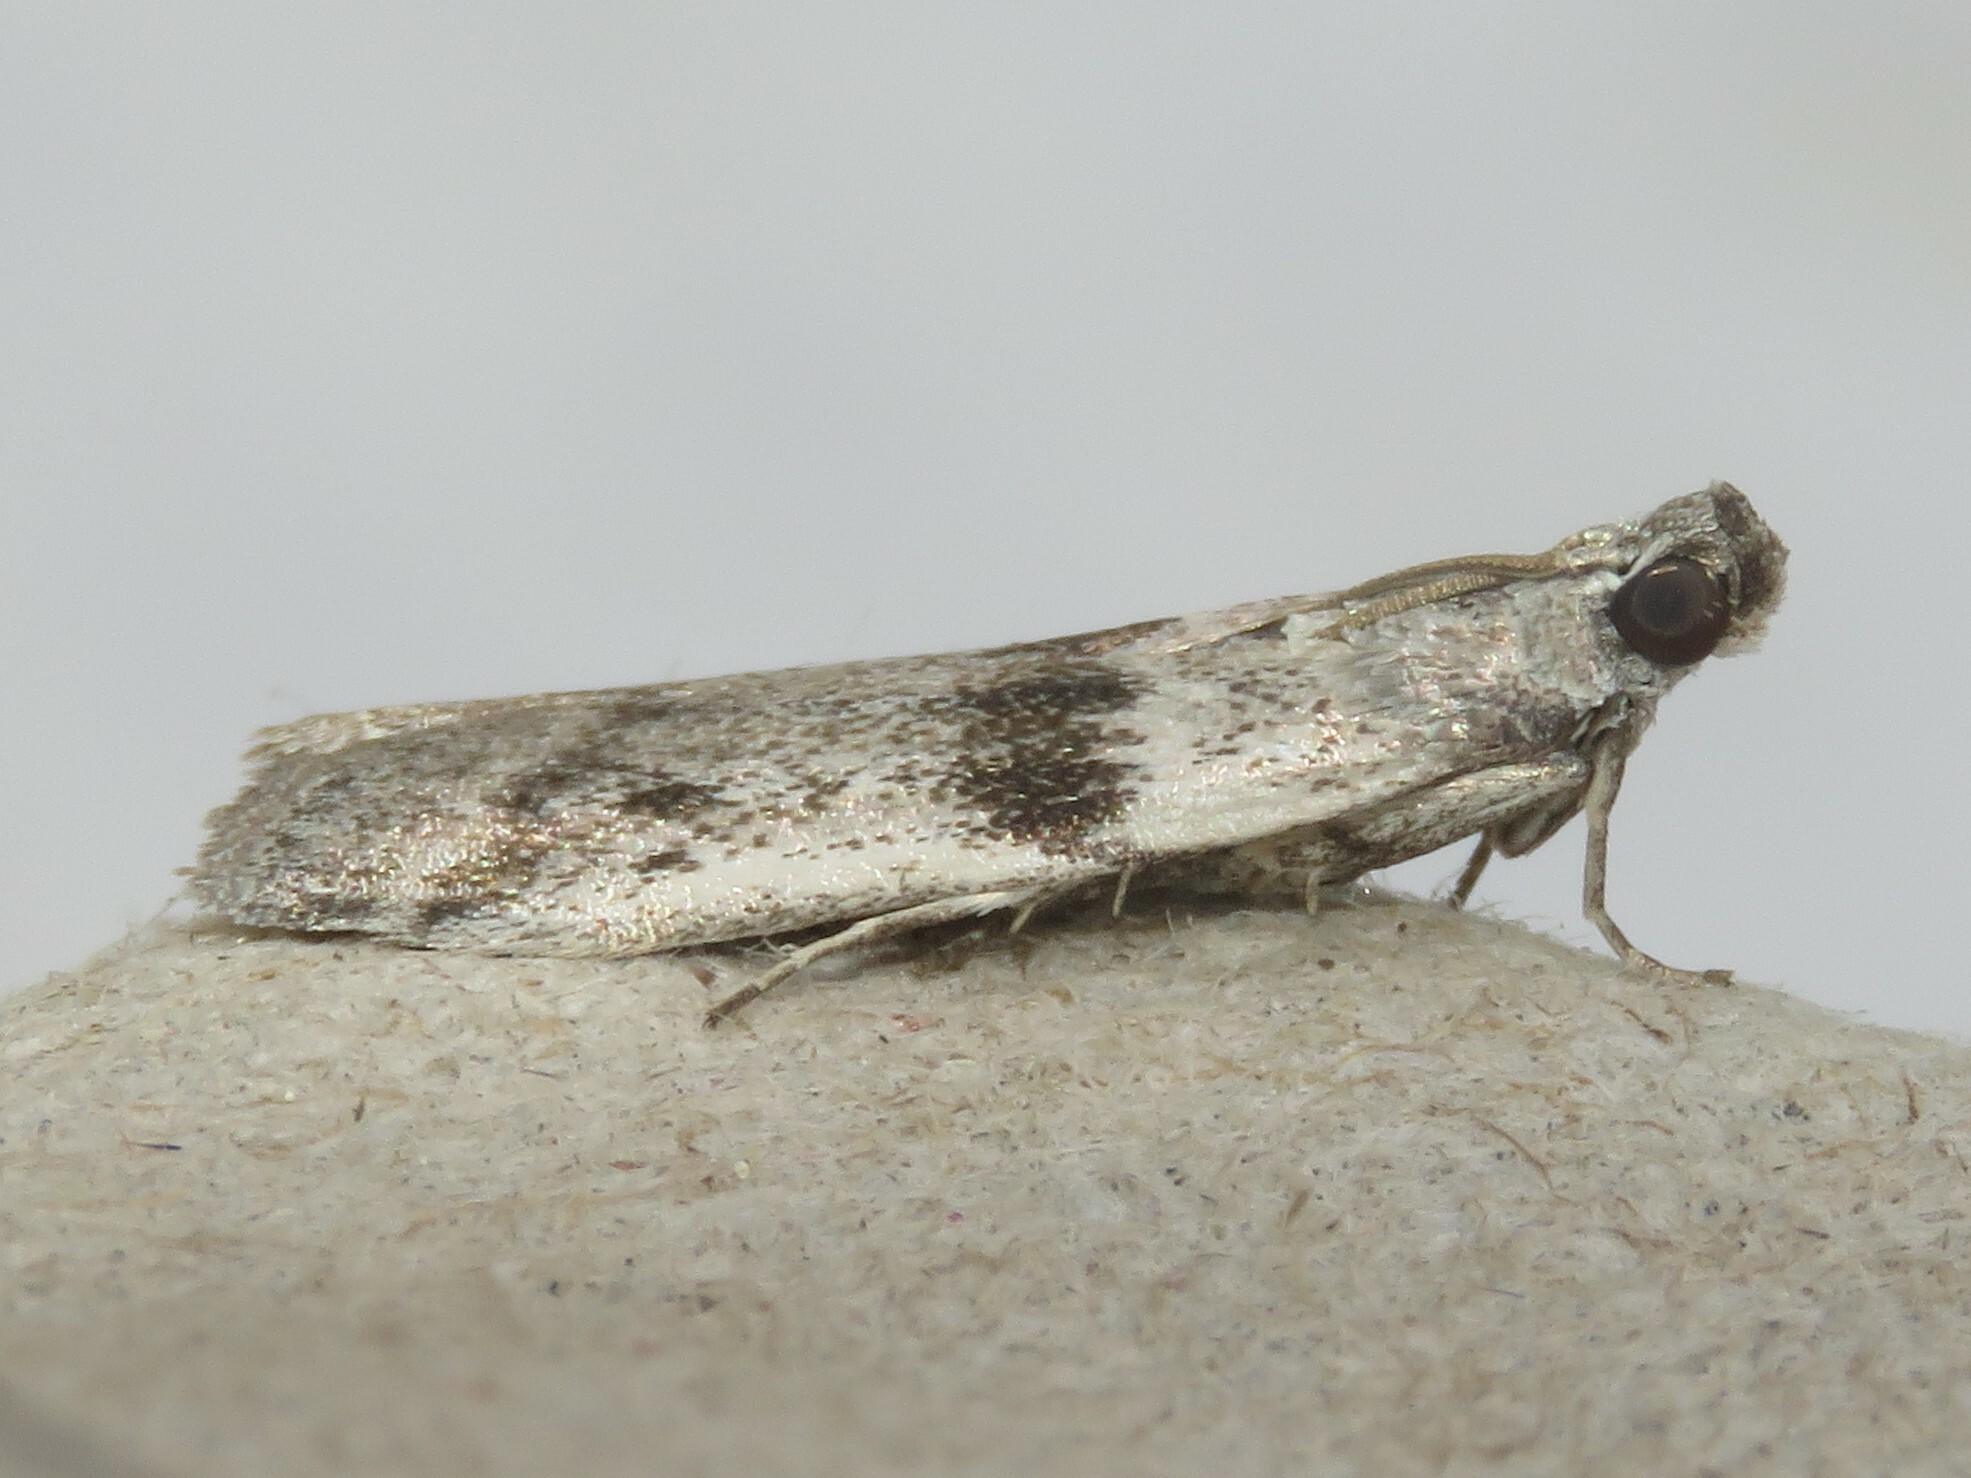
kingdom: Animalia
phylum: Arthropoda
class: Insecta
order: Lepidoptera
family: Pyralidae
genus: Homoeosoma
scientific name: Homoeosoma deceptorium
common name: Black-banded homoeosoma moth
